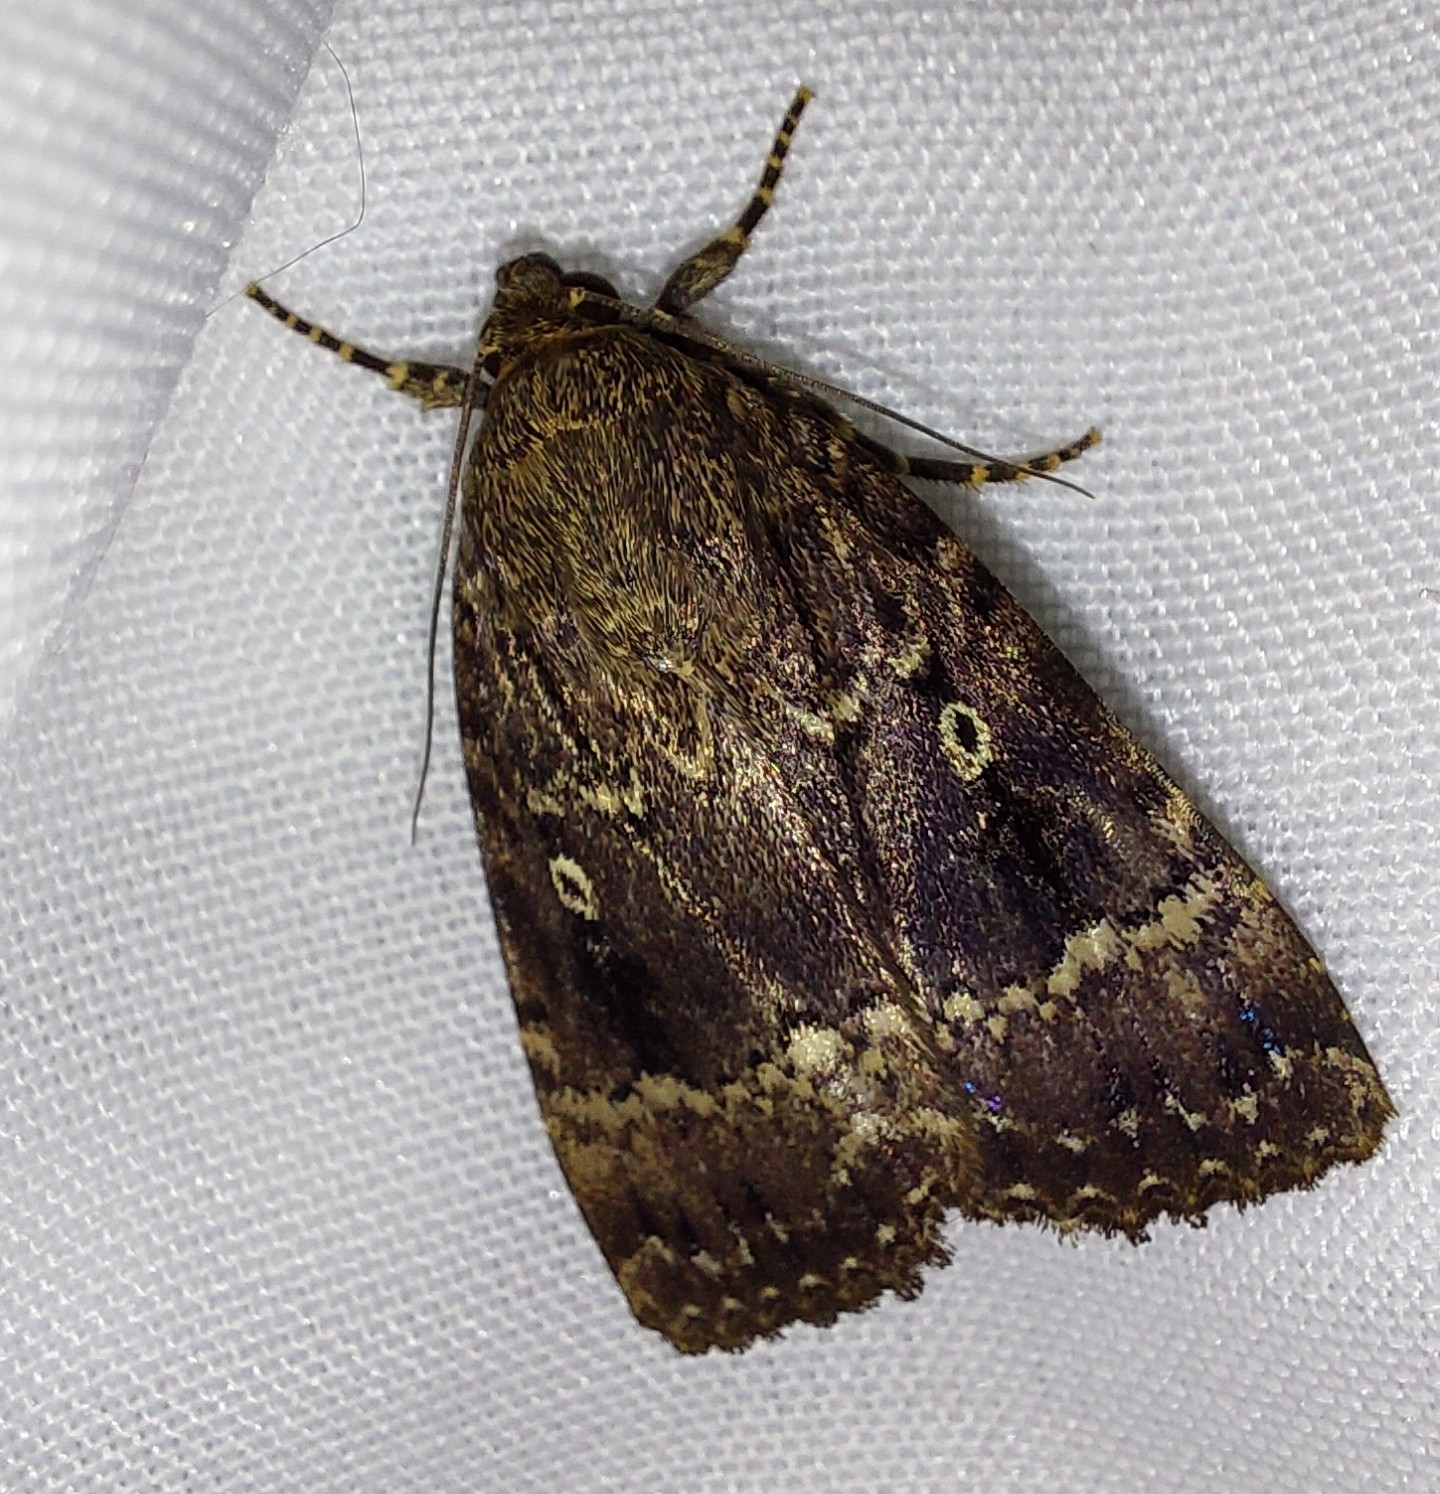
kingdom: Animalia
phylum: Arthropoda
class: Insecta
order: Lepidoptera
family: Noctuidae
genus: Amphipyra
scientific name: Amphipyra
